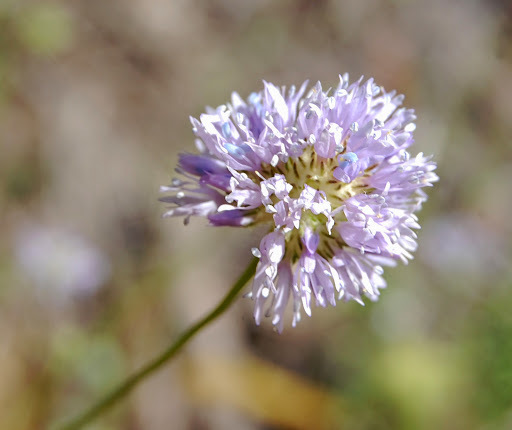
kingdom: Plantae
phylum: Tracheophyta
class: Magnoliopsida
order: Ericales
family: Polemoniaceae
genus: Gilia
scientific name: Gilia capitata
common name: Bluehead gilia
